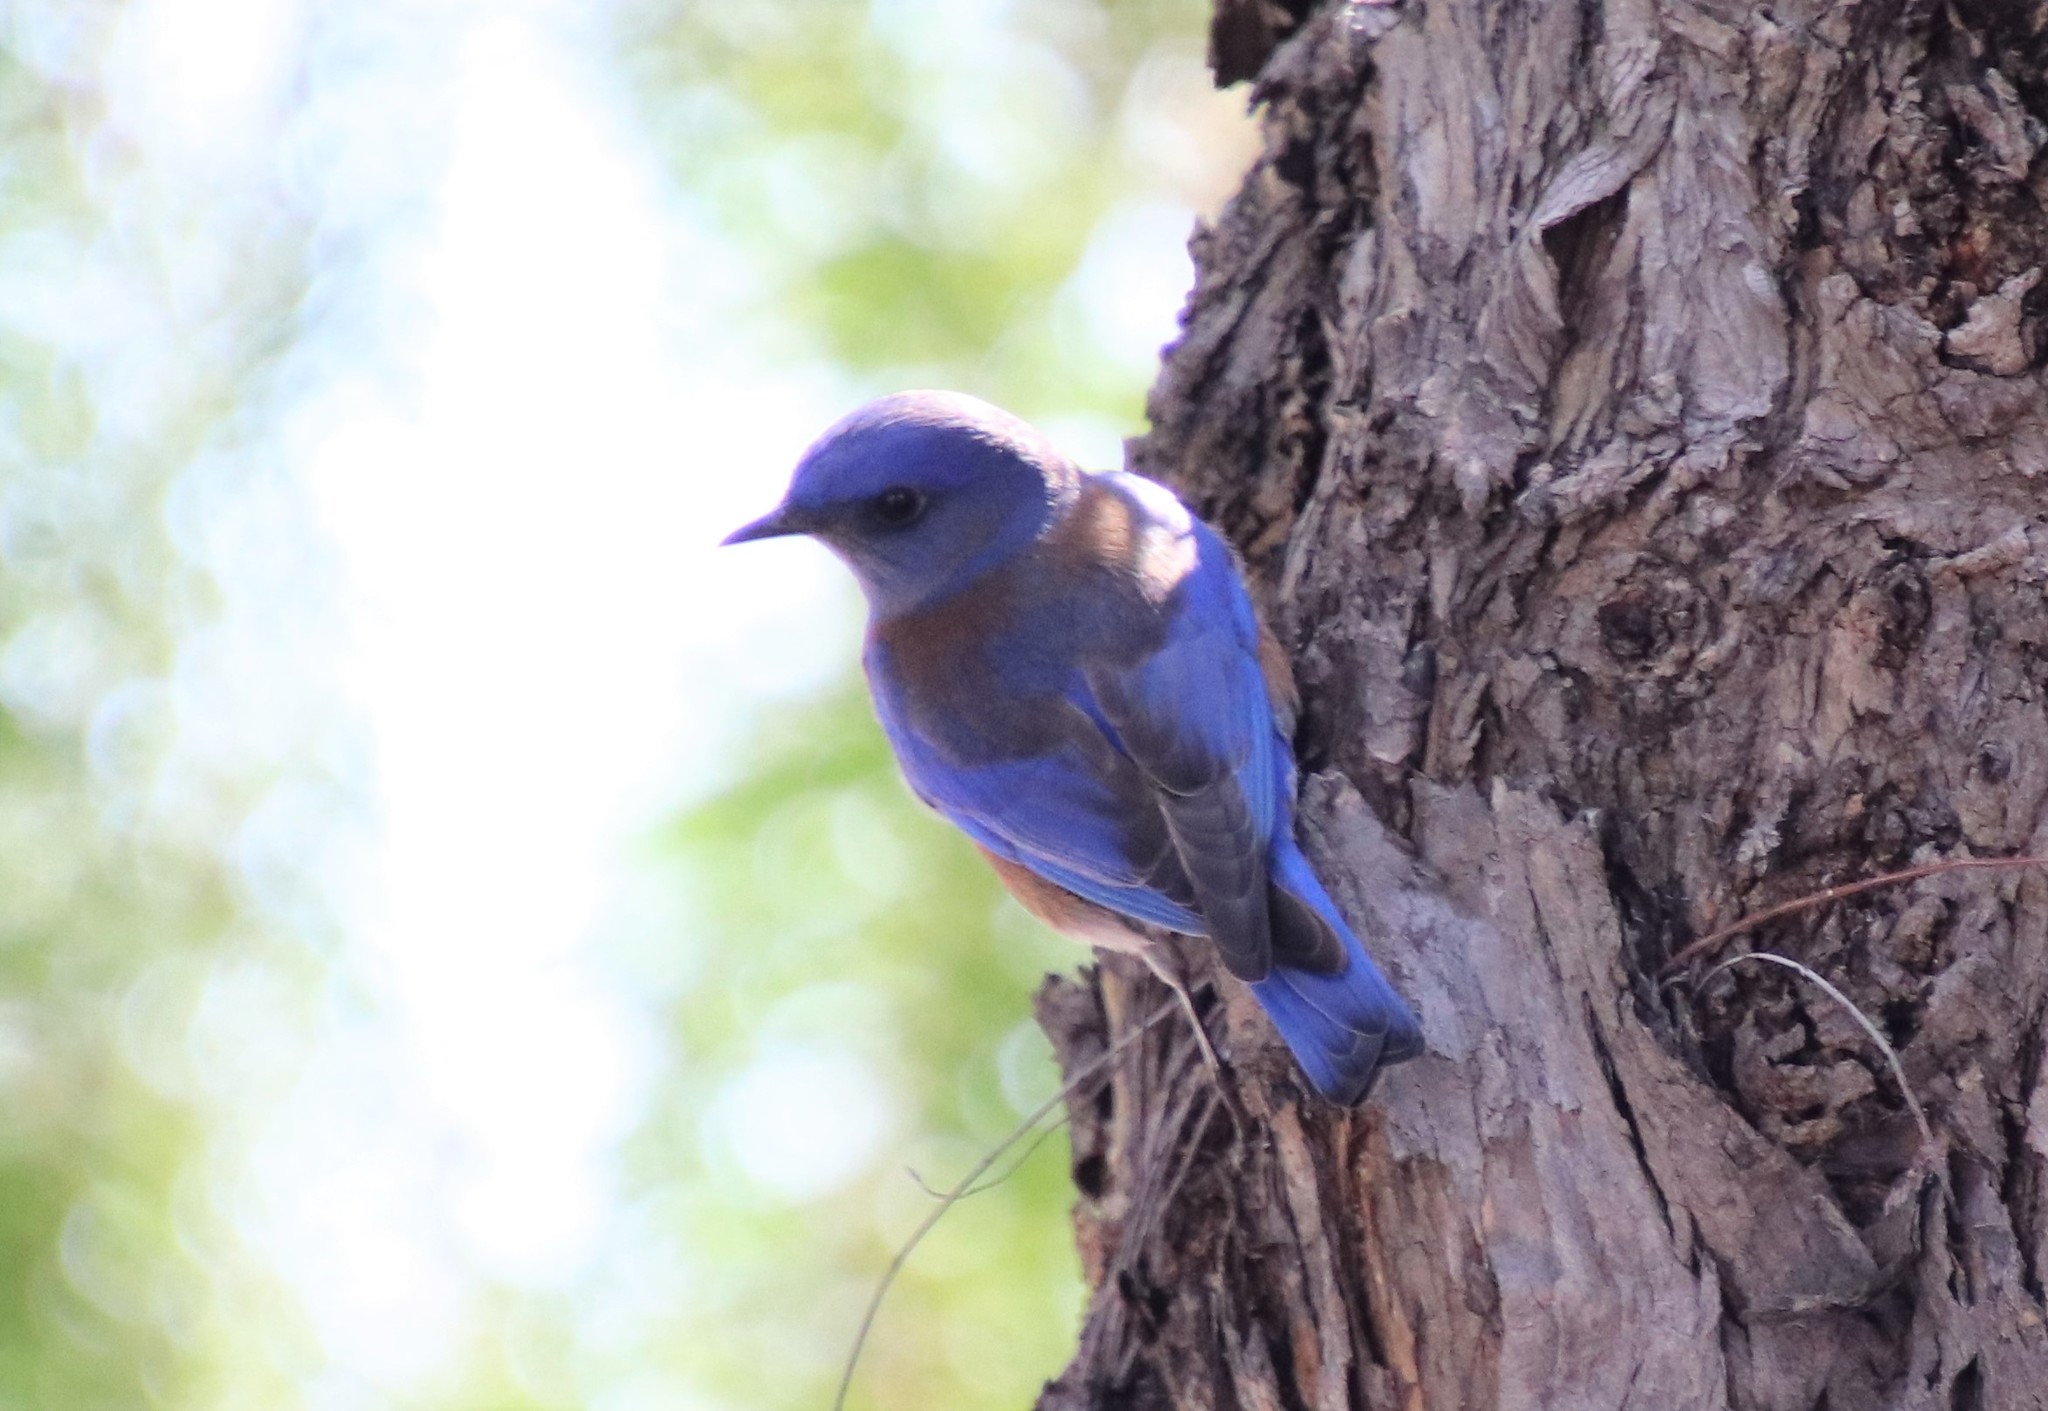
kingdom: Animalia
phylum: Chordata
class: Aves
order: Passeriformes
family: Turdidae
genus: Sialia
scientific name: Sialia mexicana
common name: Western bluebird
